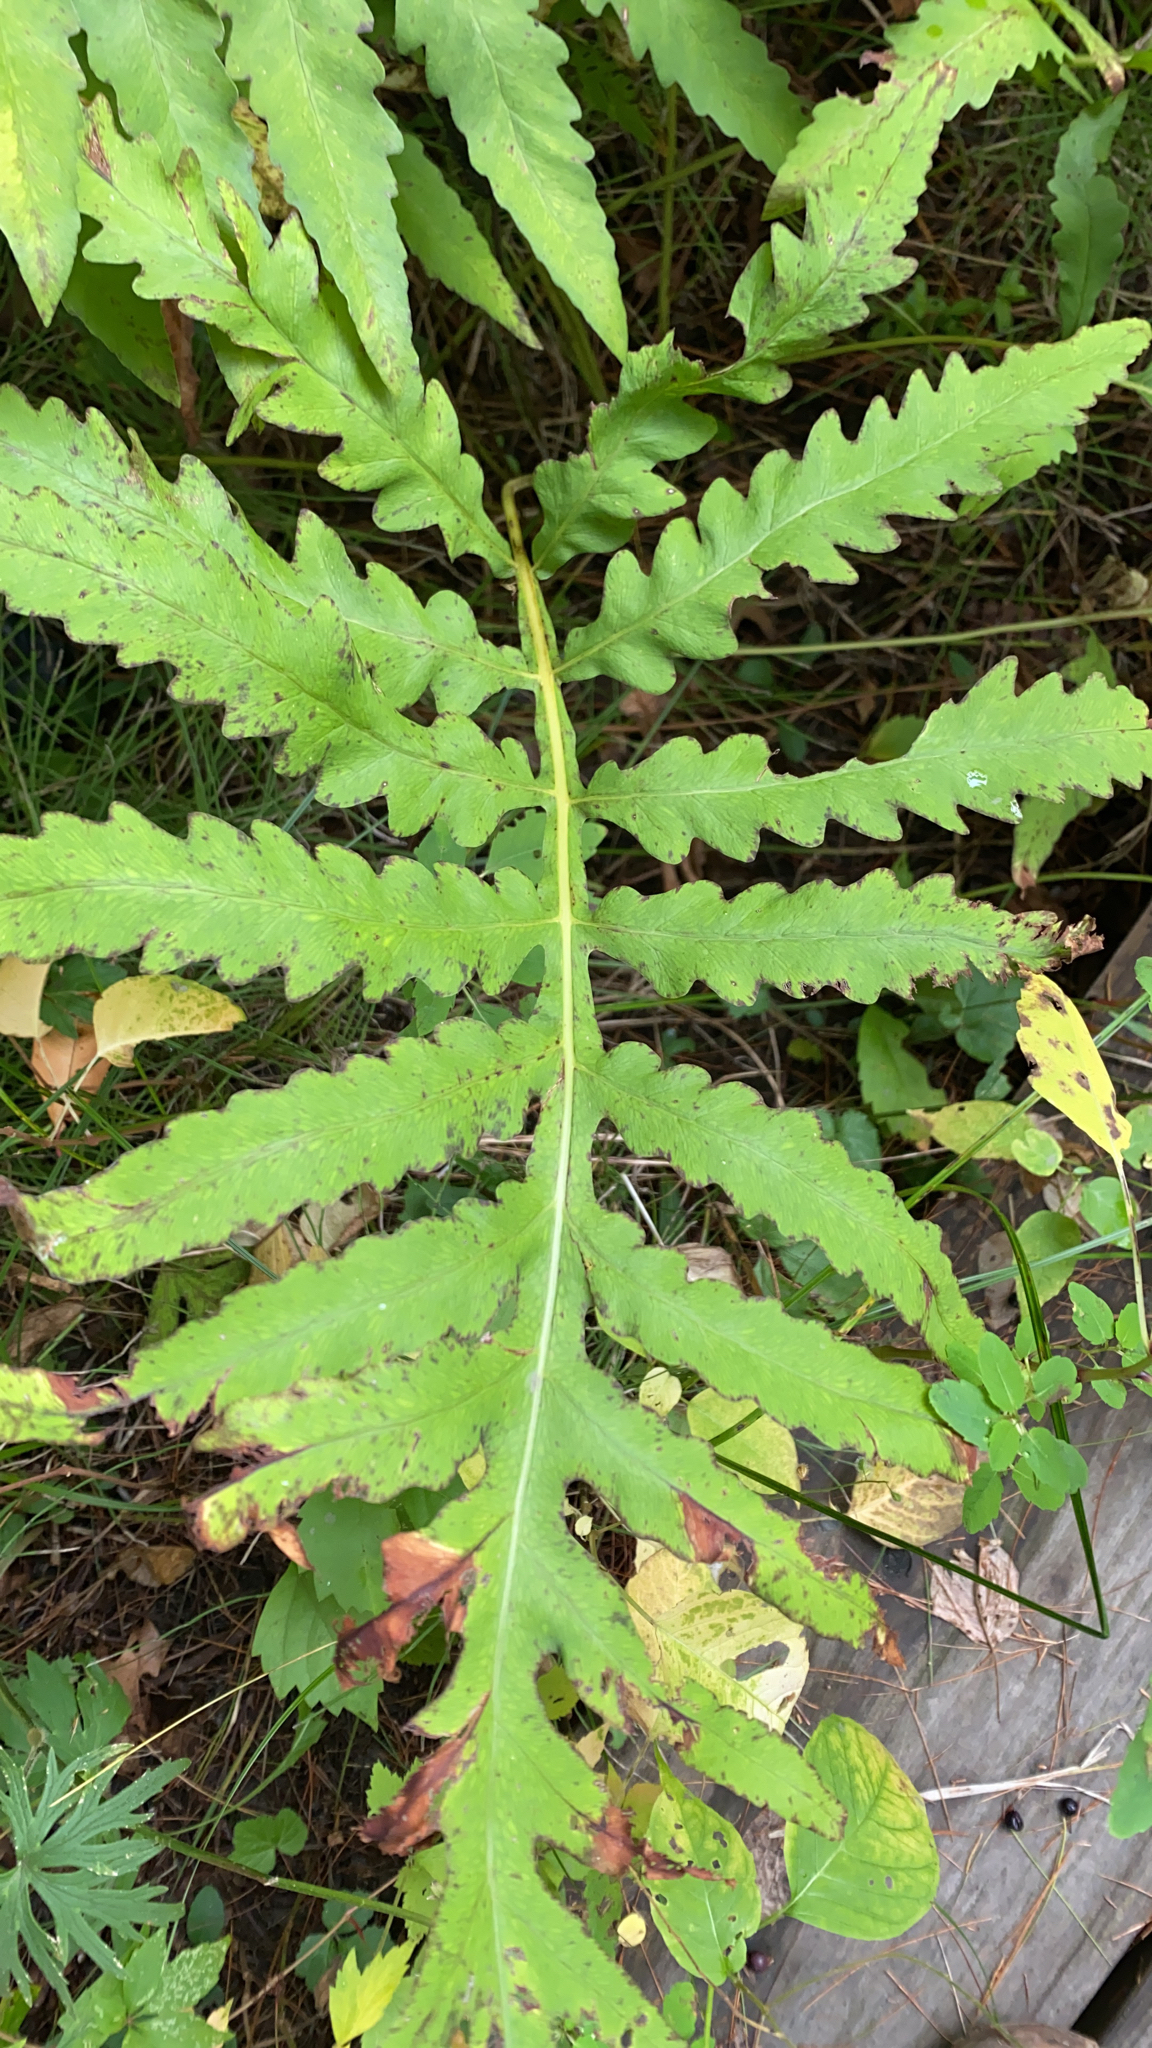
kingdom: Plantae
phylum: Tracheophyta
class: Polypodiopsida
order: Polypodiales
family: Onocleaceae
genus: Onoclea
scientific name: Onoclea sensibilis
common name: Sensitive fern
